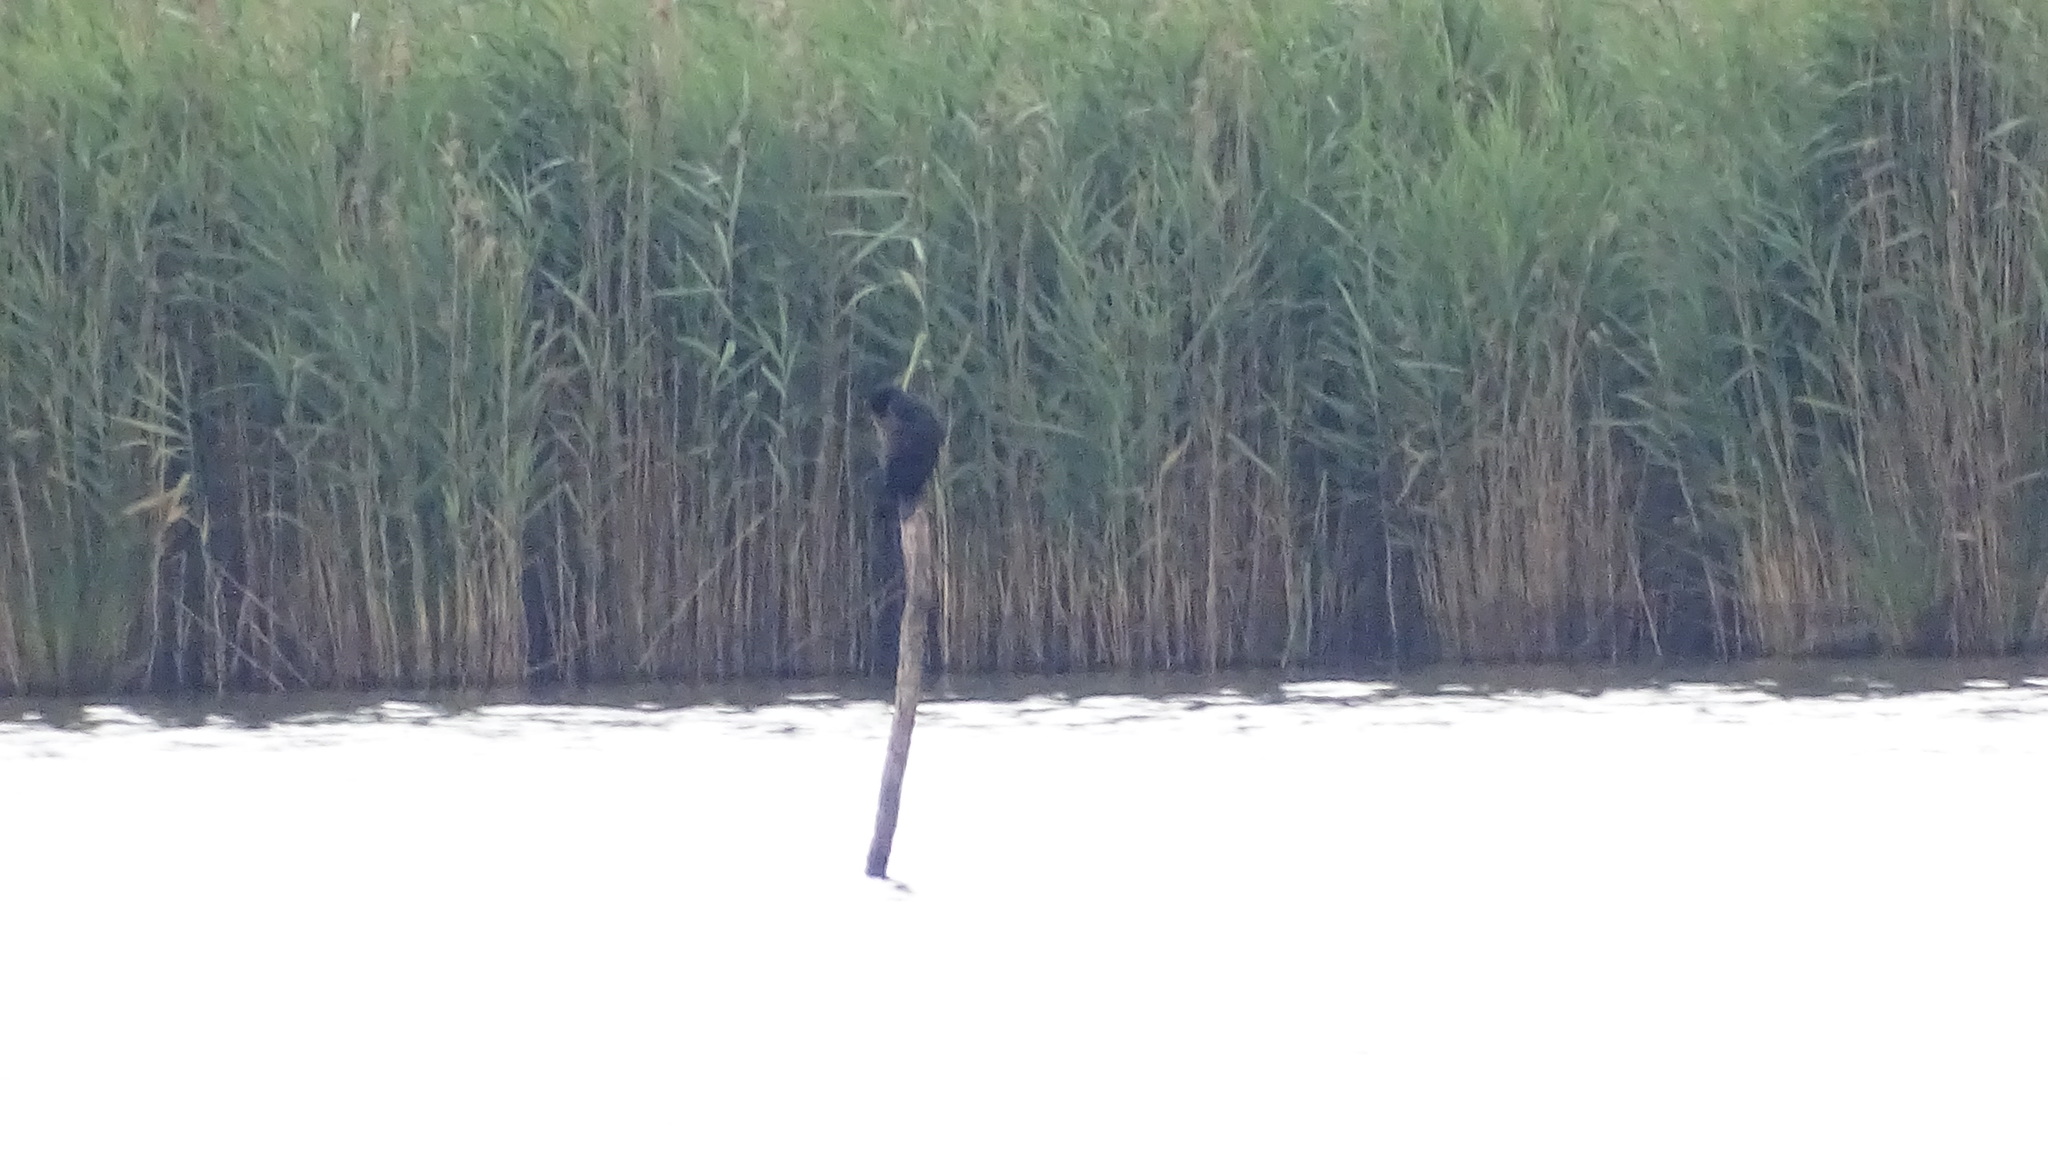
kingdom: Animalia
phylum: Chordata
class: Aves
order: Suliformes
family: Phalacrocoracidae
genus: Phalacrocorax
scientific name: Phalacrocorax carbo
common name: Great cormorant
